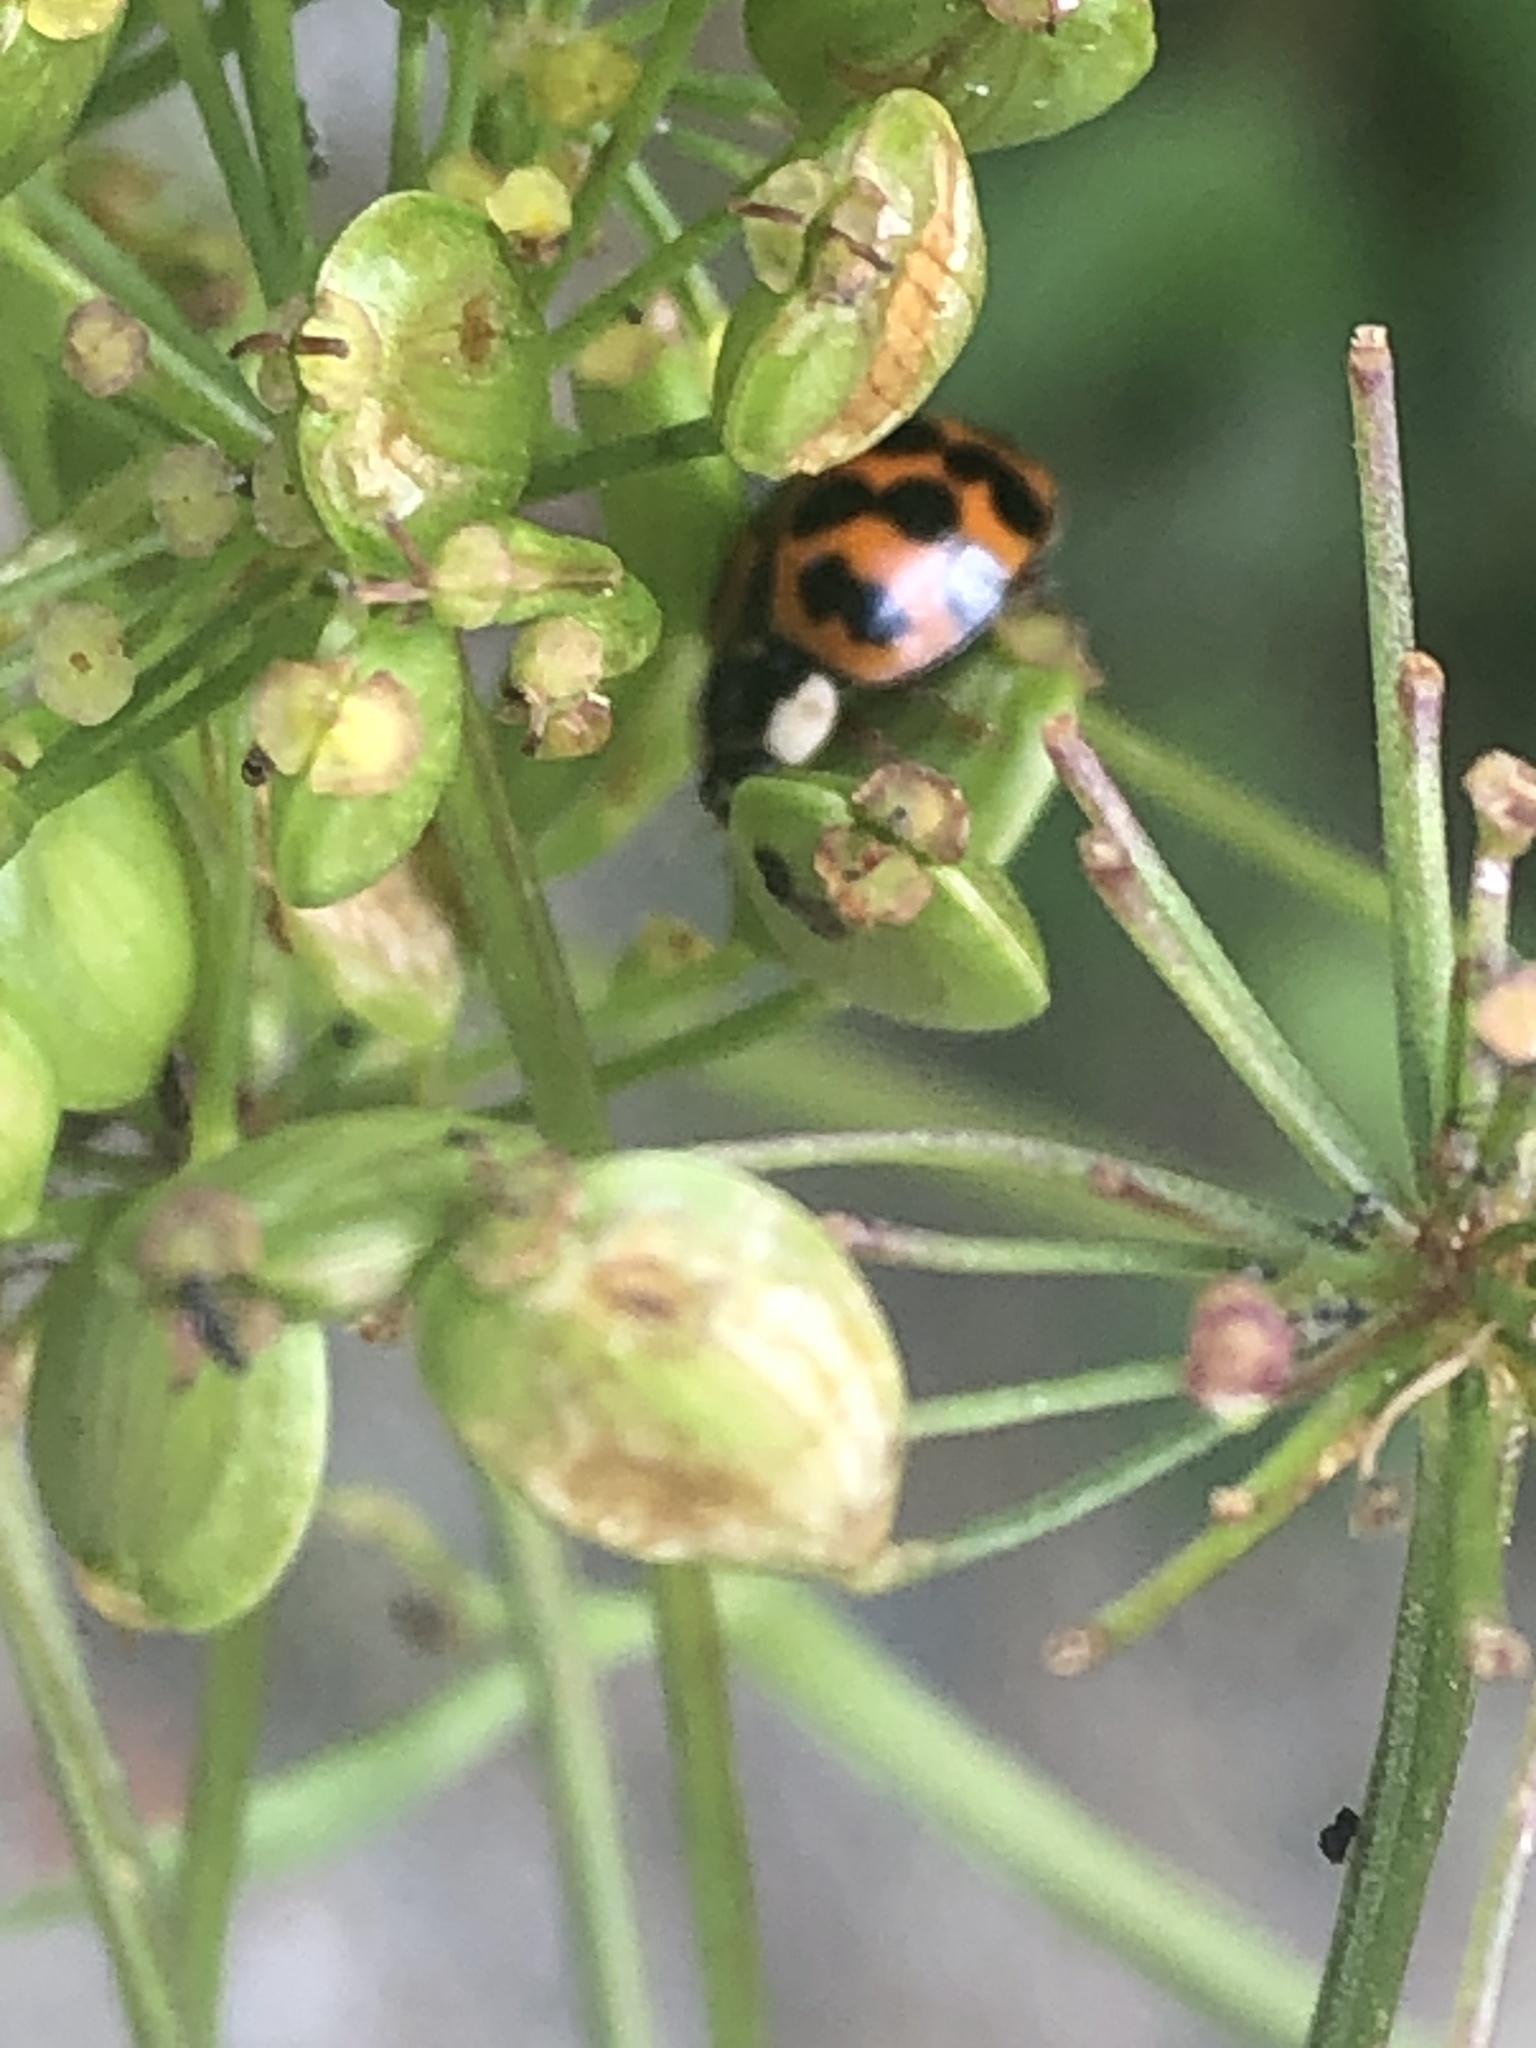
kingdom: Animalia
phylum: Arthropoda
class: Insecta
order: Coleoptera
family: Coccinellidae
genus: Harmonia
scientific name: Harmonia axyridis
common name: Harlequin ladybird
